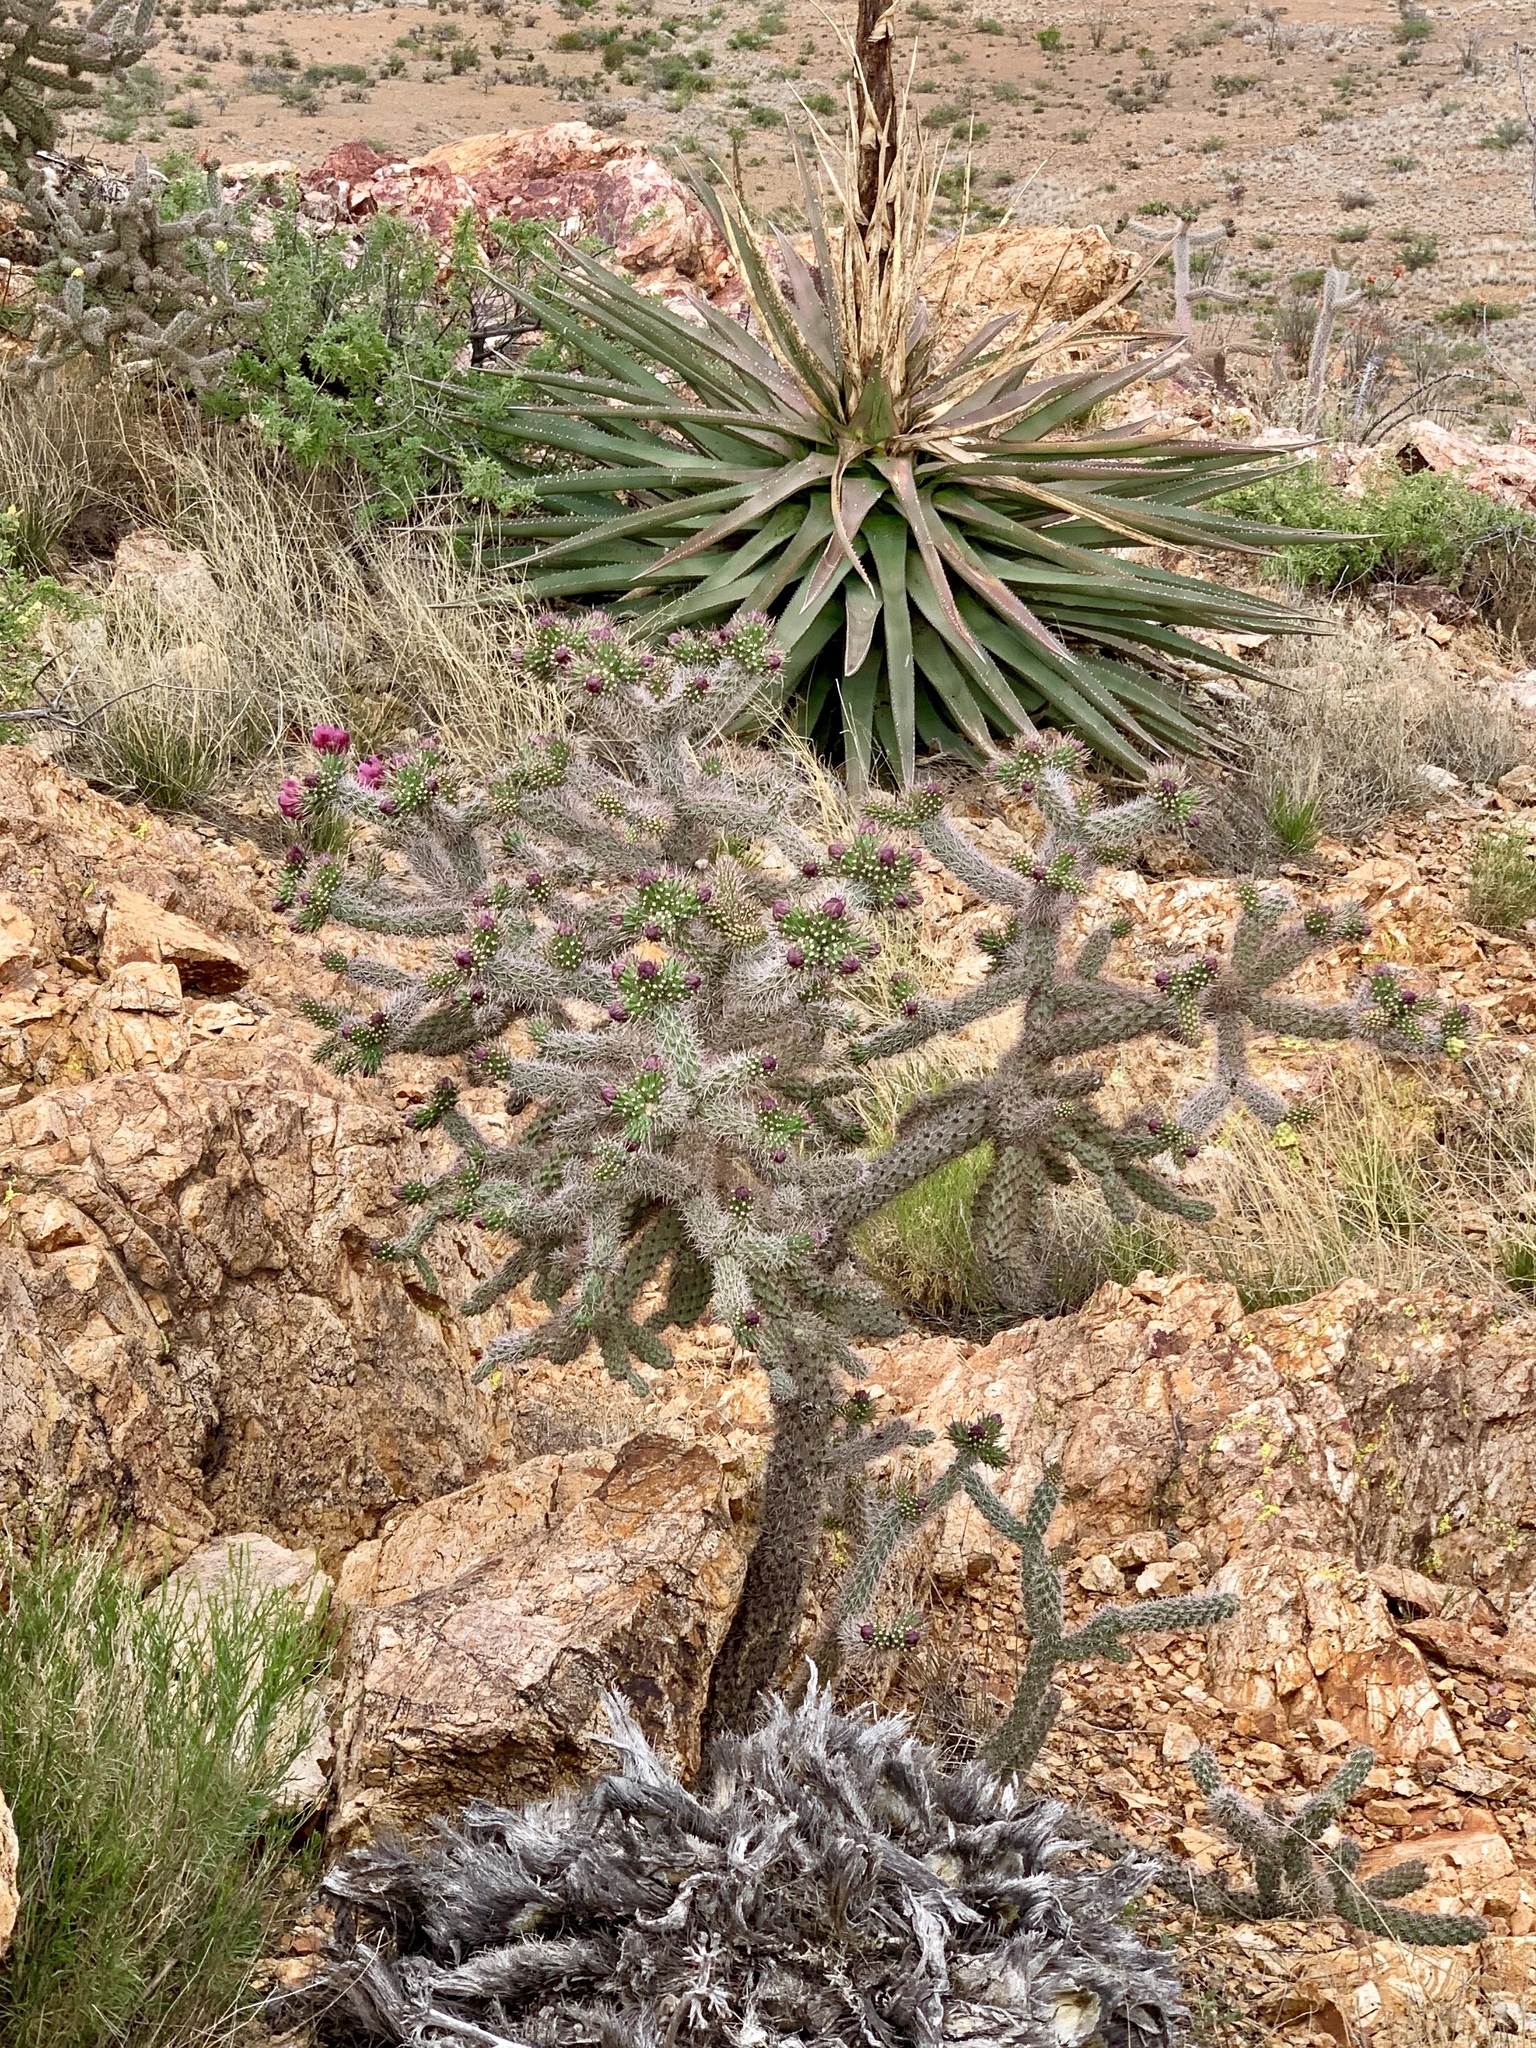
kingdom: Plantae
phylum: Tracheophyta
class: Magnoliopsida
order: Caryophyllales
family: Cactaceae
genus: Cylindropuntia
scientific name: Cylindropuntia imbricata
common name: Candelabrum cactus
